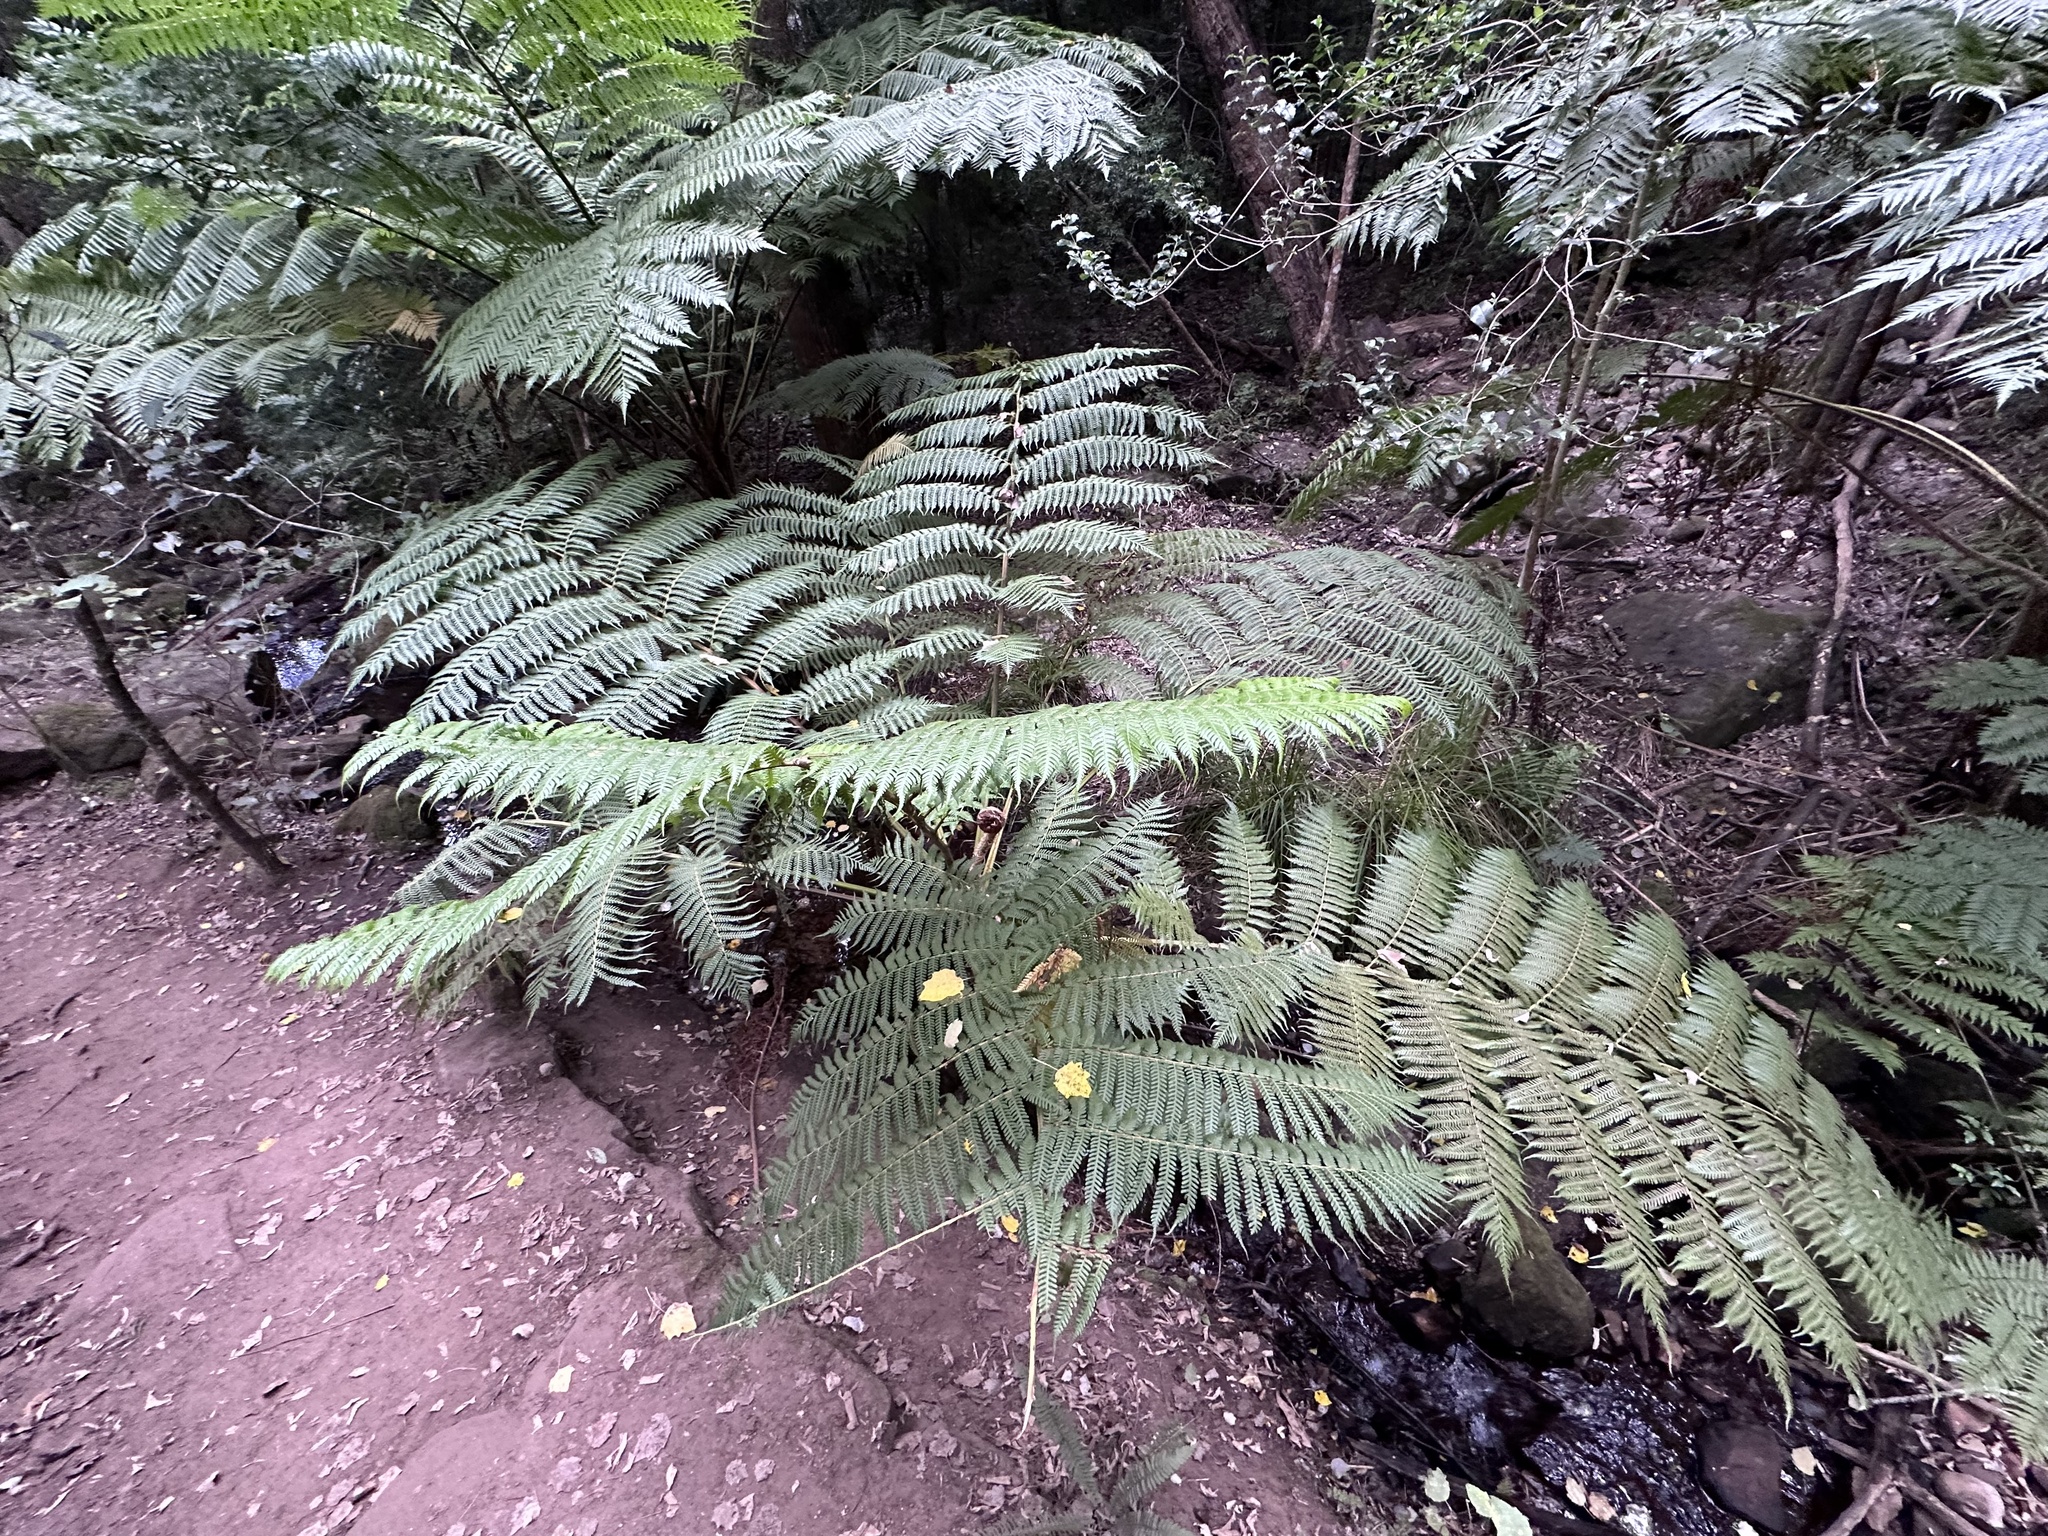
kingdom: Plantae
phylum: Tracheophyta
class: Polypodiopsida
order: Cyatheales
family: Cyatheaceae
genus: Sphaeropteris
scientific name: Sphaeropteris cooperi
